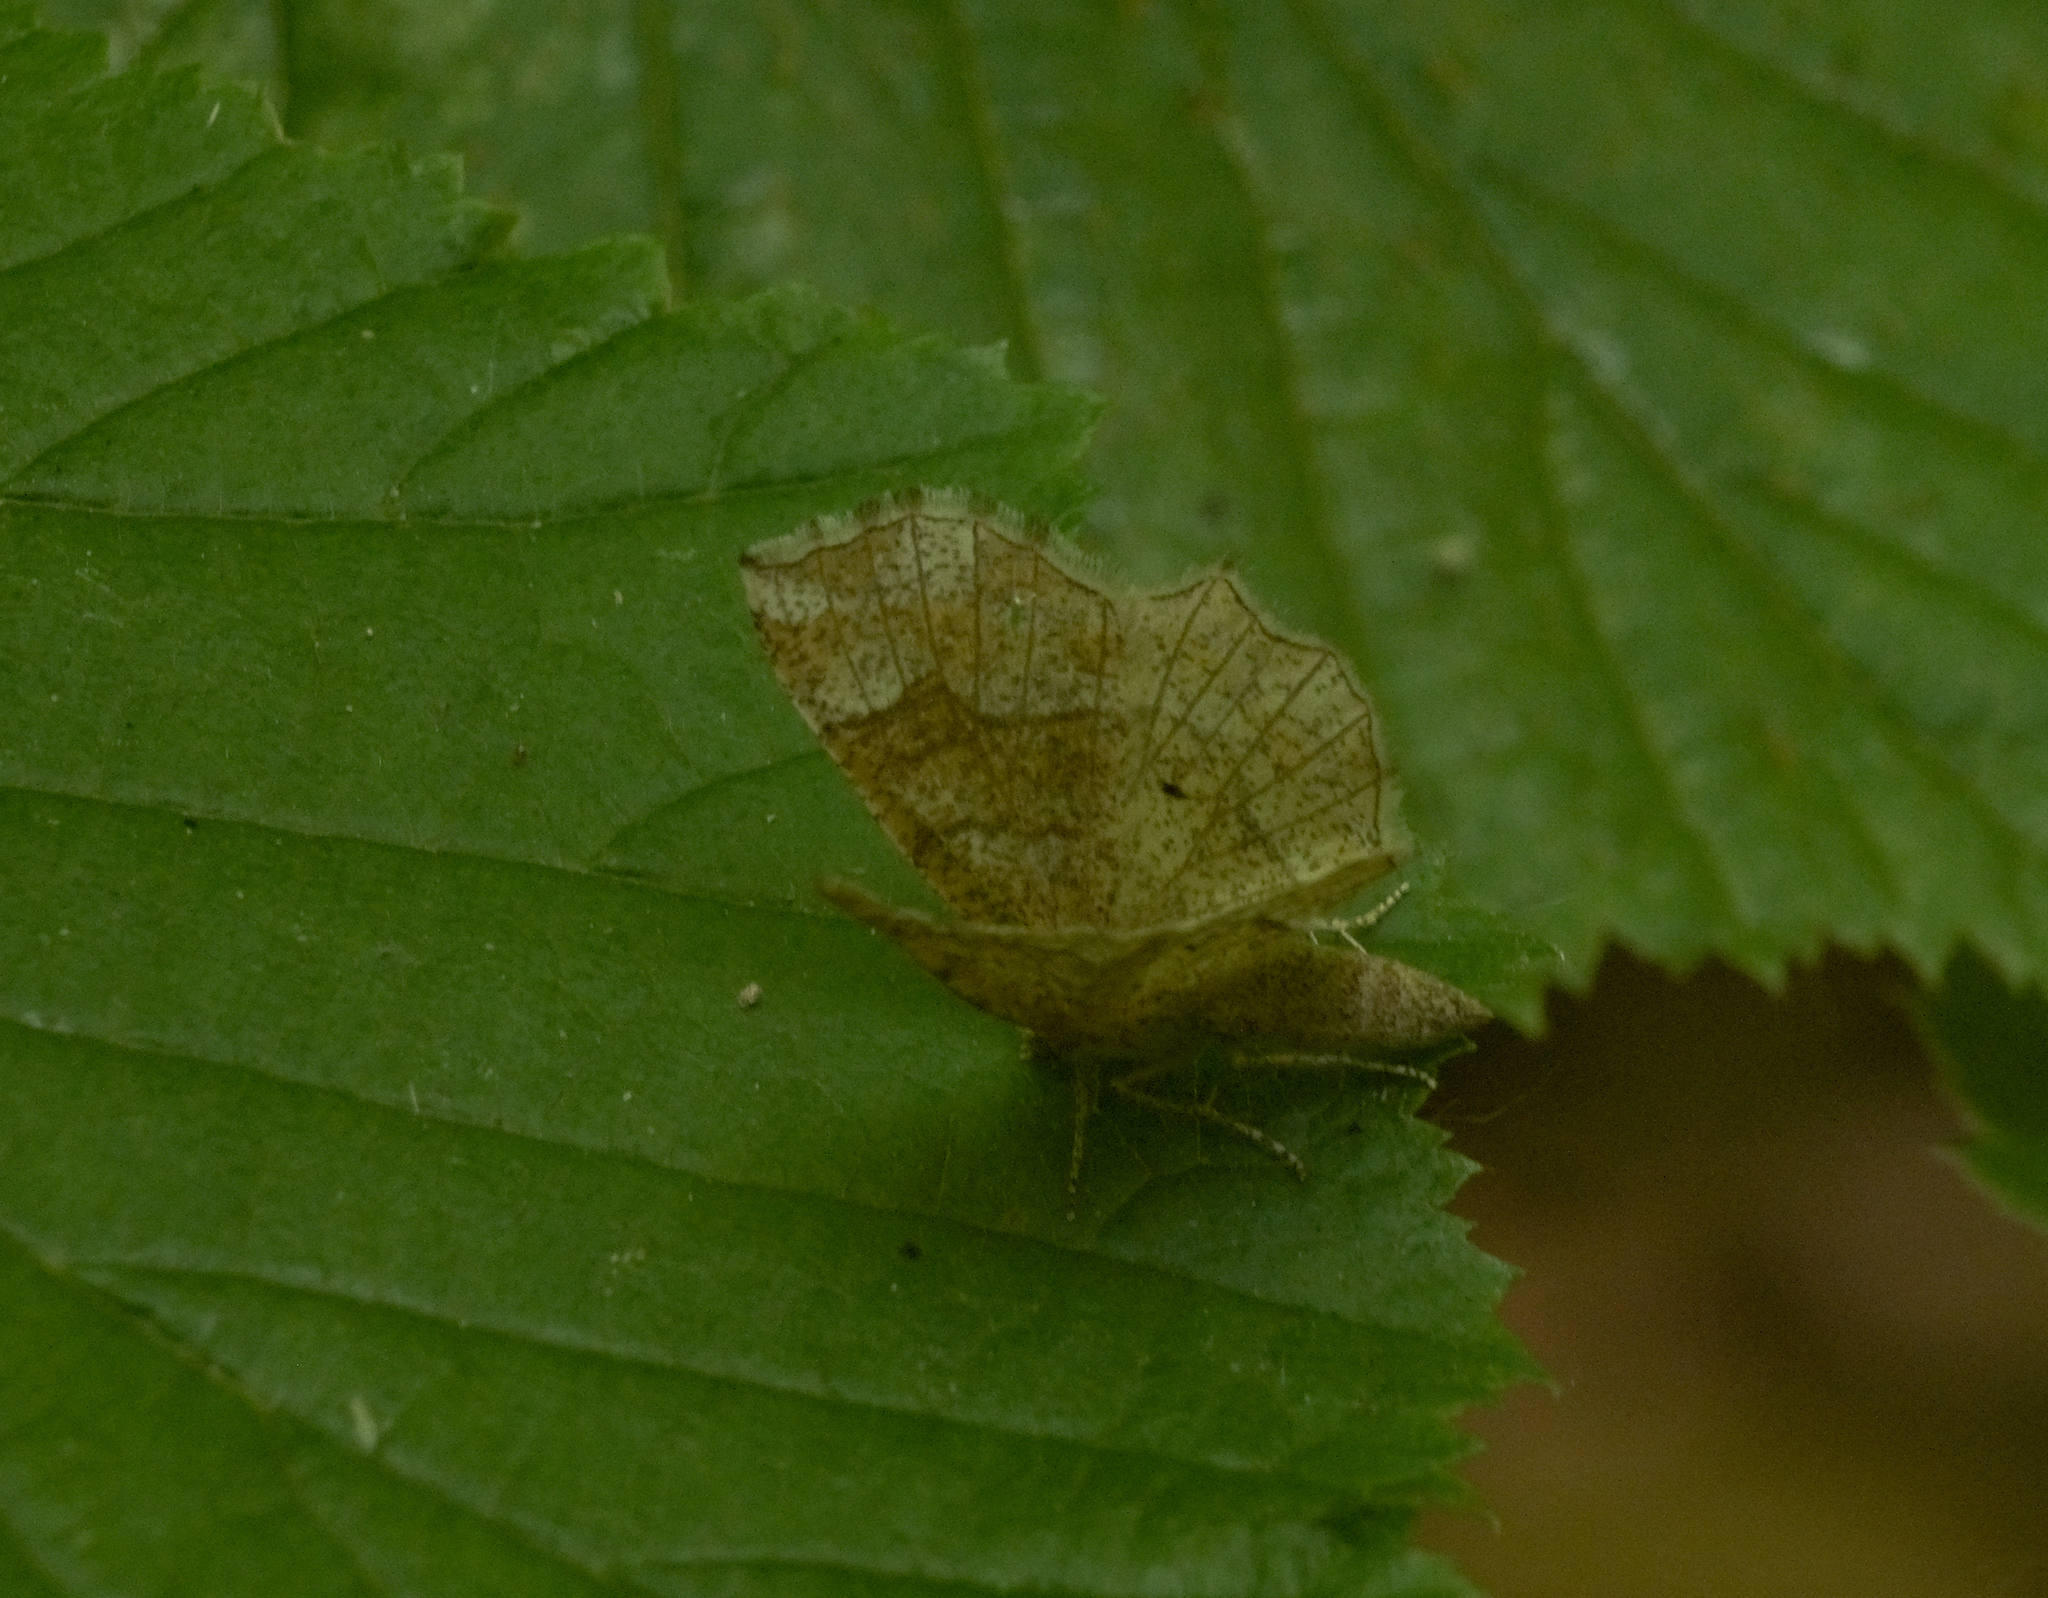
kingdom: Animalia
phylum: Arthropoda
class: Insecta
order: Lepidoptera
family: Geometridae
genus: Cepphis
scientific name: Cepphis advenaria
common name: Little thorn
